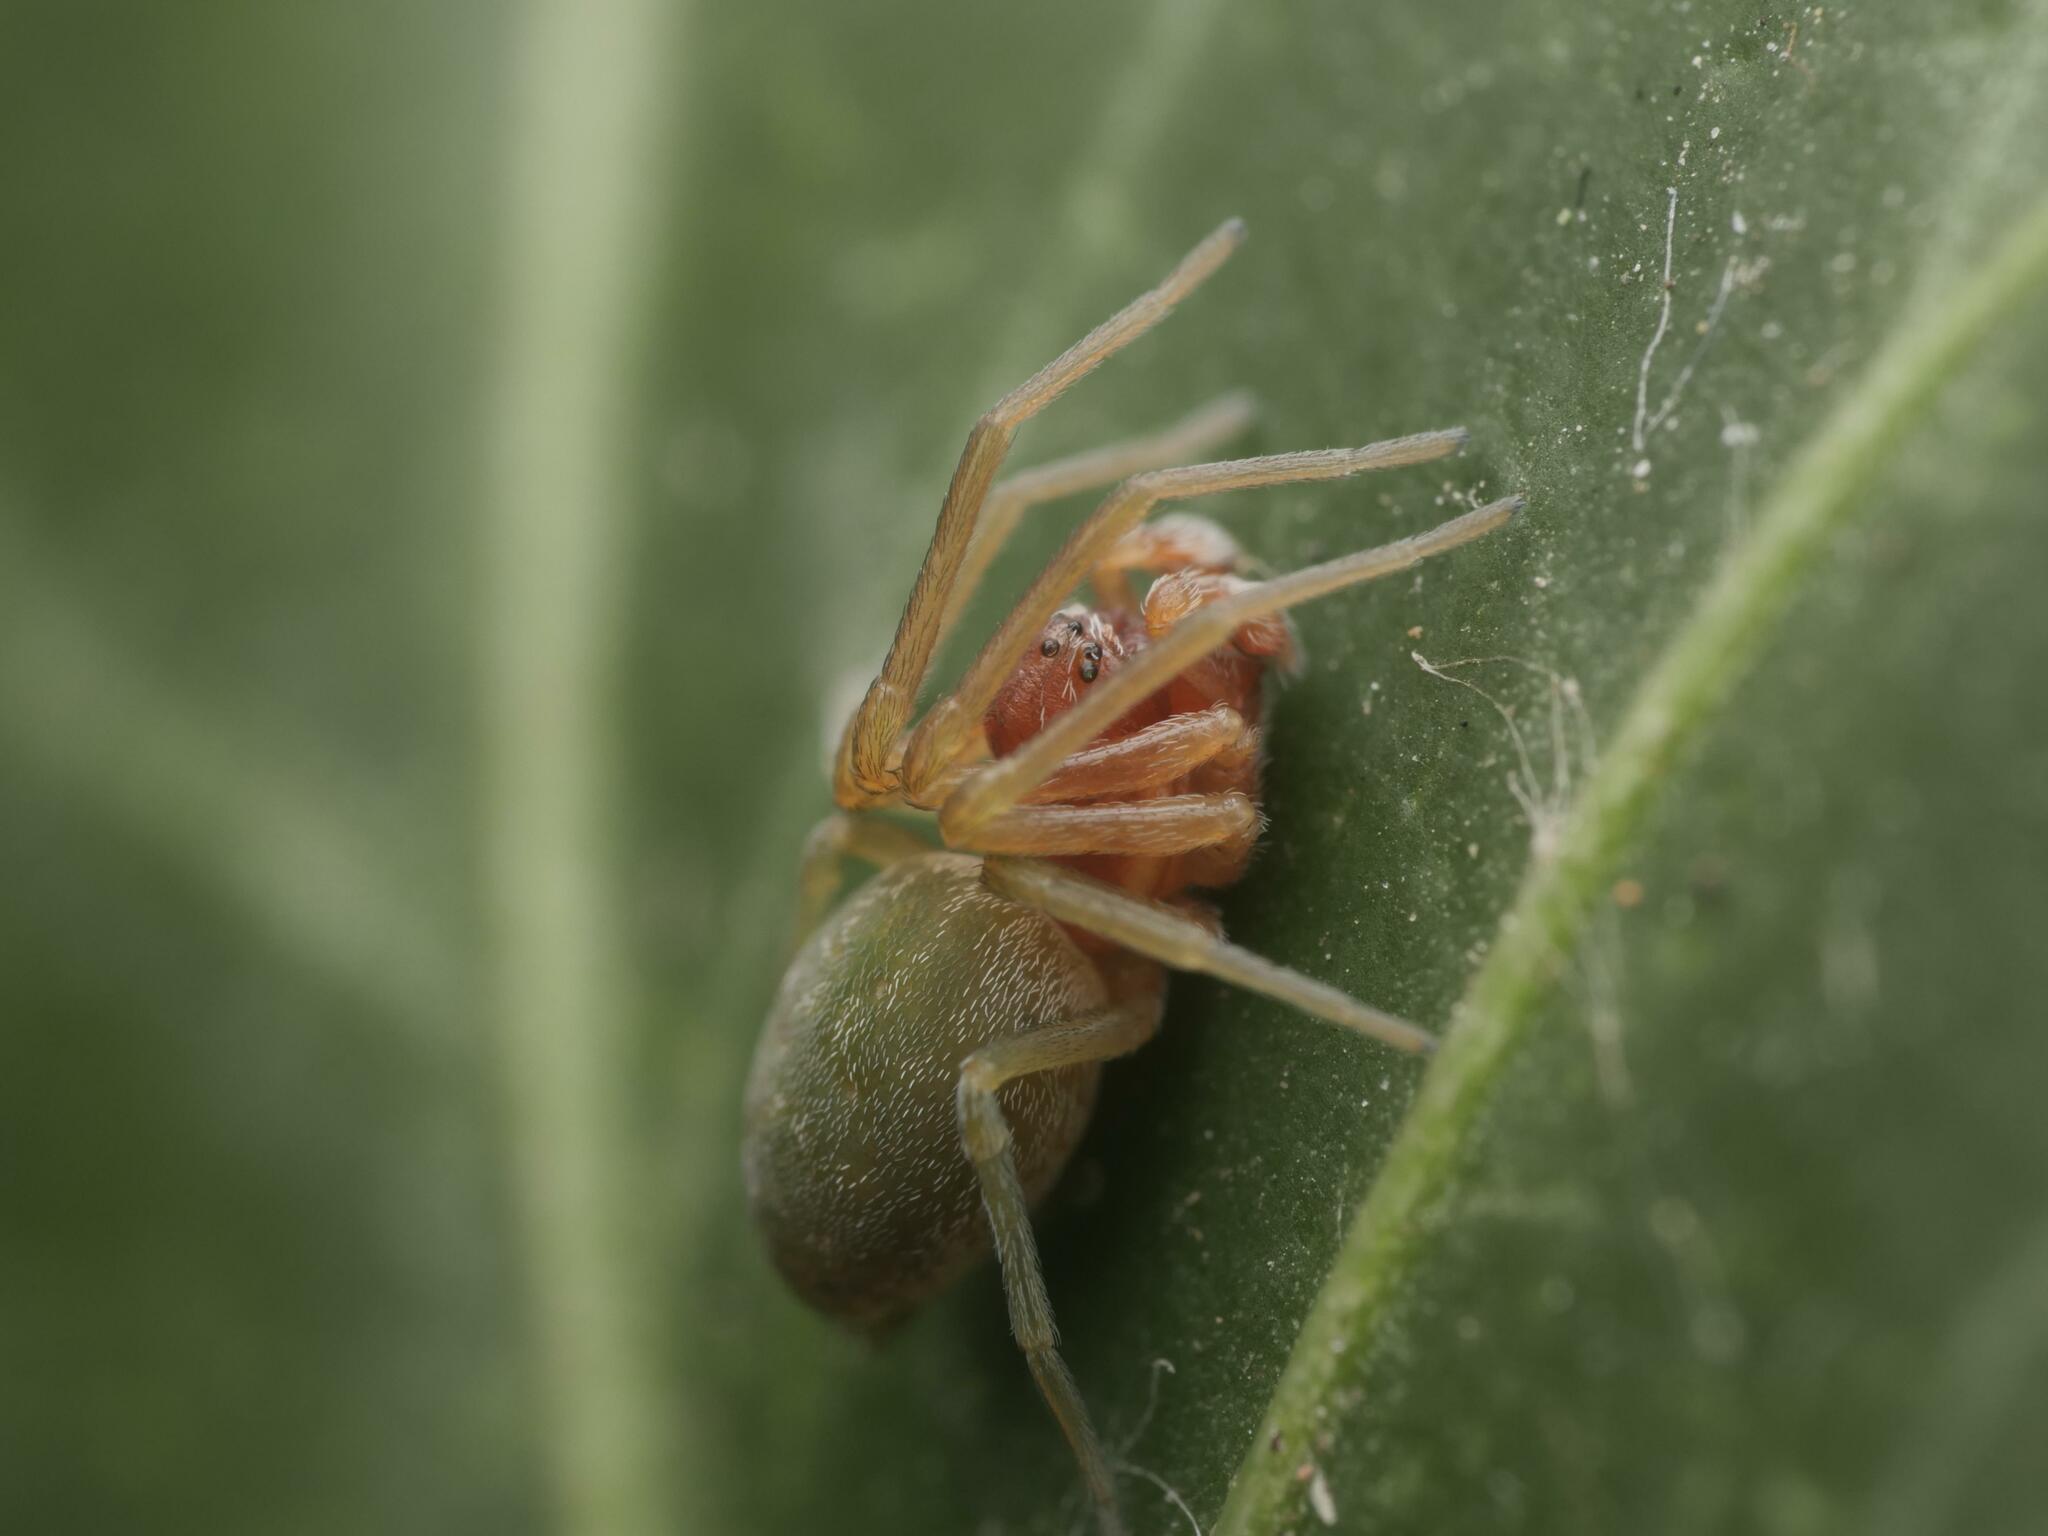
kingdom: Animalia
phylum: Arthropoda
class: Arachnida
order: Araneae
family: Dictynidae
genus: Nigma
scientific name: Nigma walckenaeri
